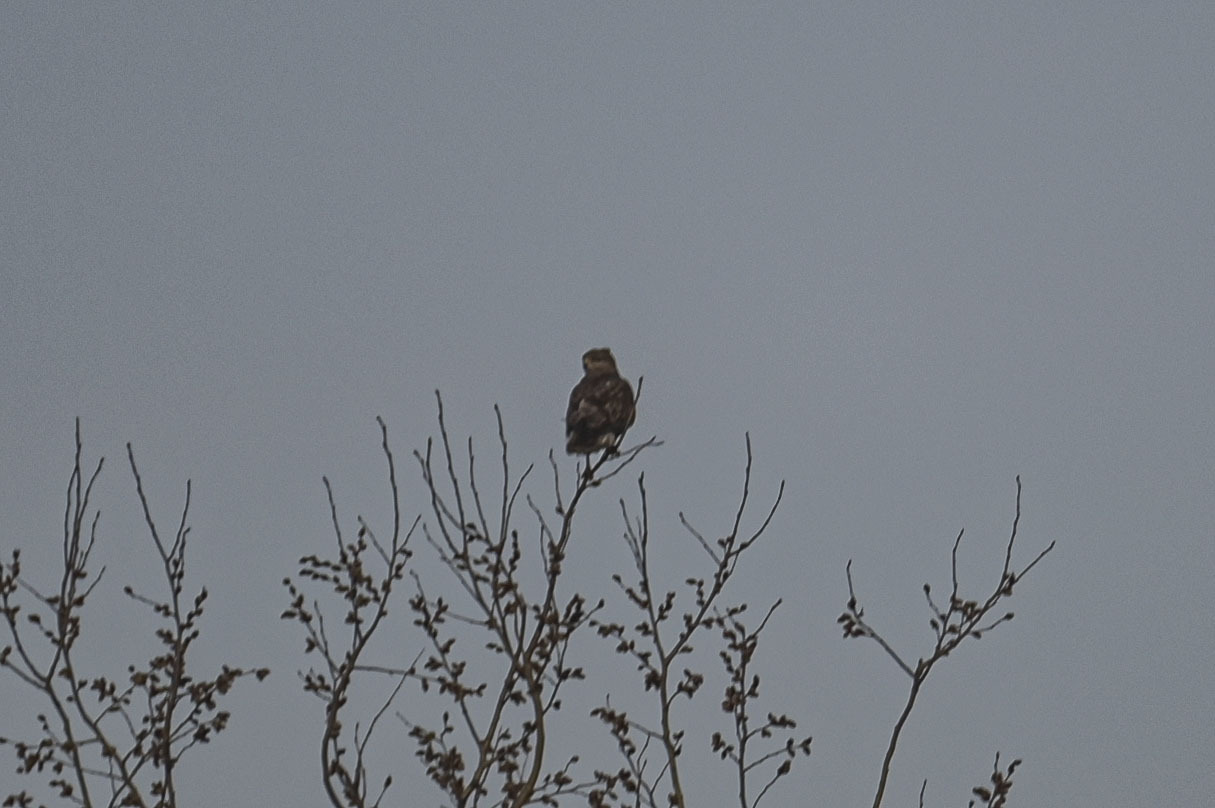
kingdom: Animalia
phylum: Chordata
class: Aves
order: Accipitriformes
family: Accipitridae
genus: Buteo
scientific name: Buteo buteo
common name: Common buzzard
